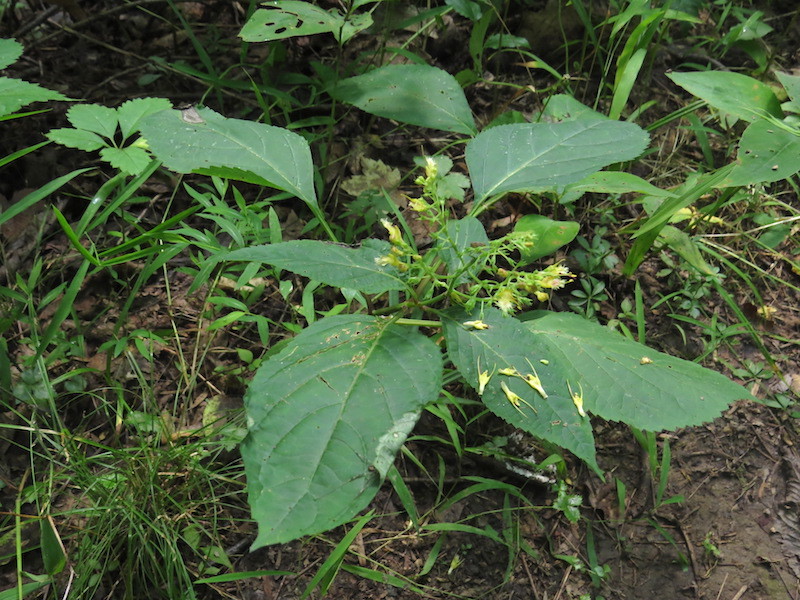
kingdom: Plantae
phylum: Tracheophyta
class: Magnoliopsida
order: Lamiales
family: Lamiaceae
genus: Collinsonia
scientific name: Collinsonia canadensis
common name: Northern horsebalm
